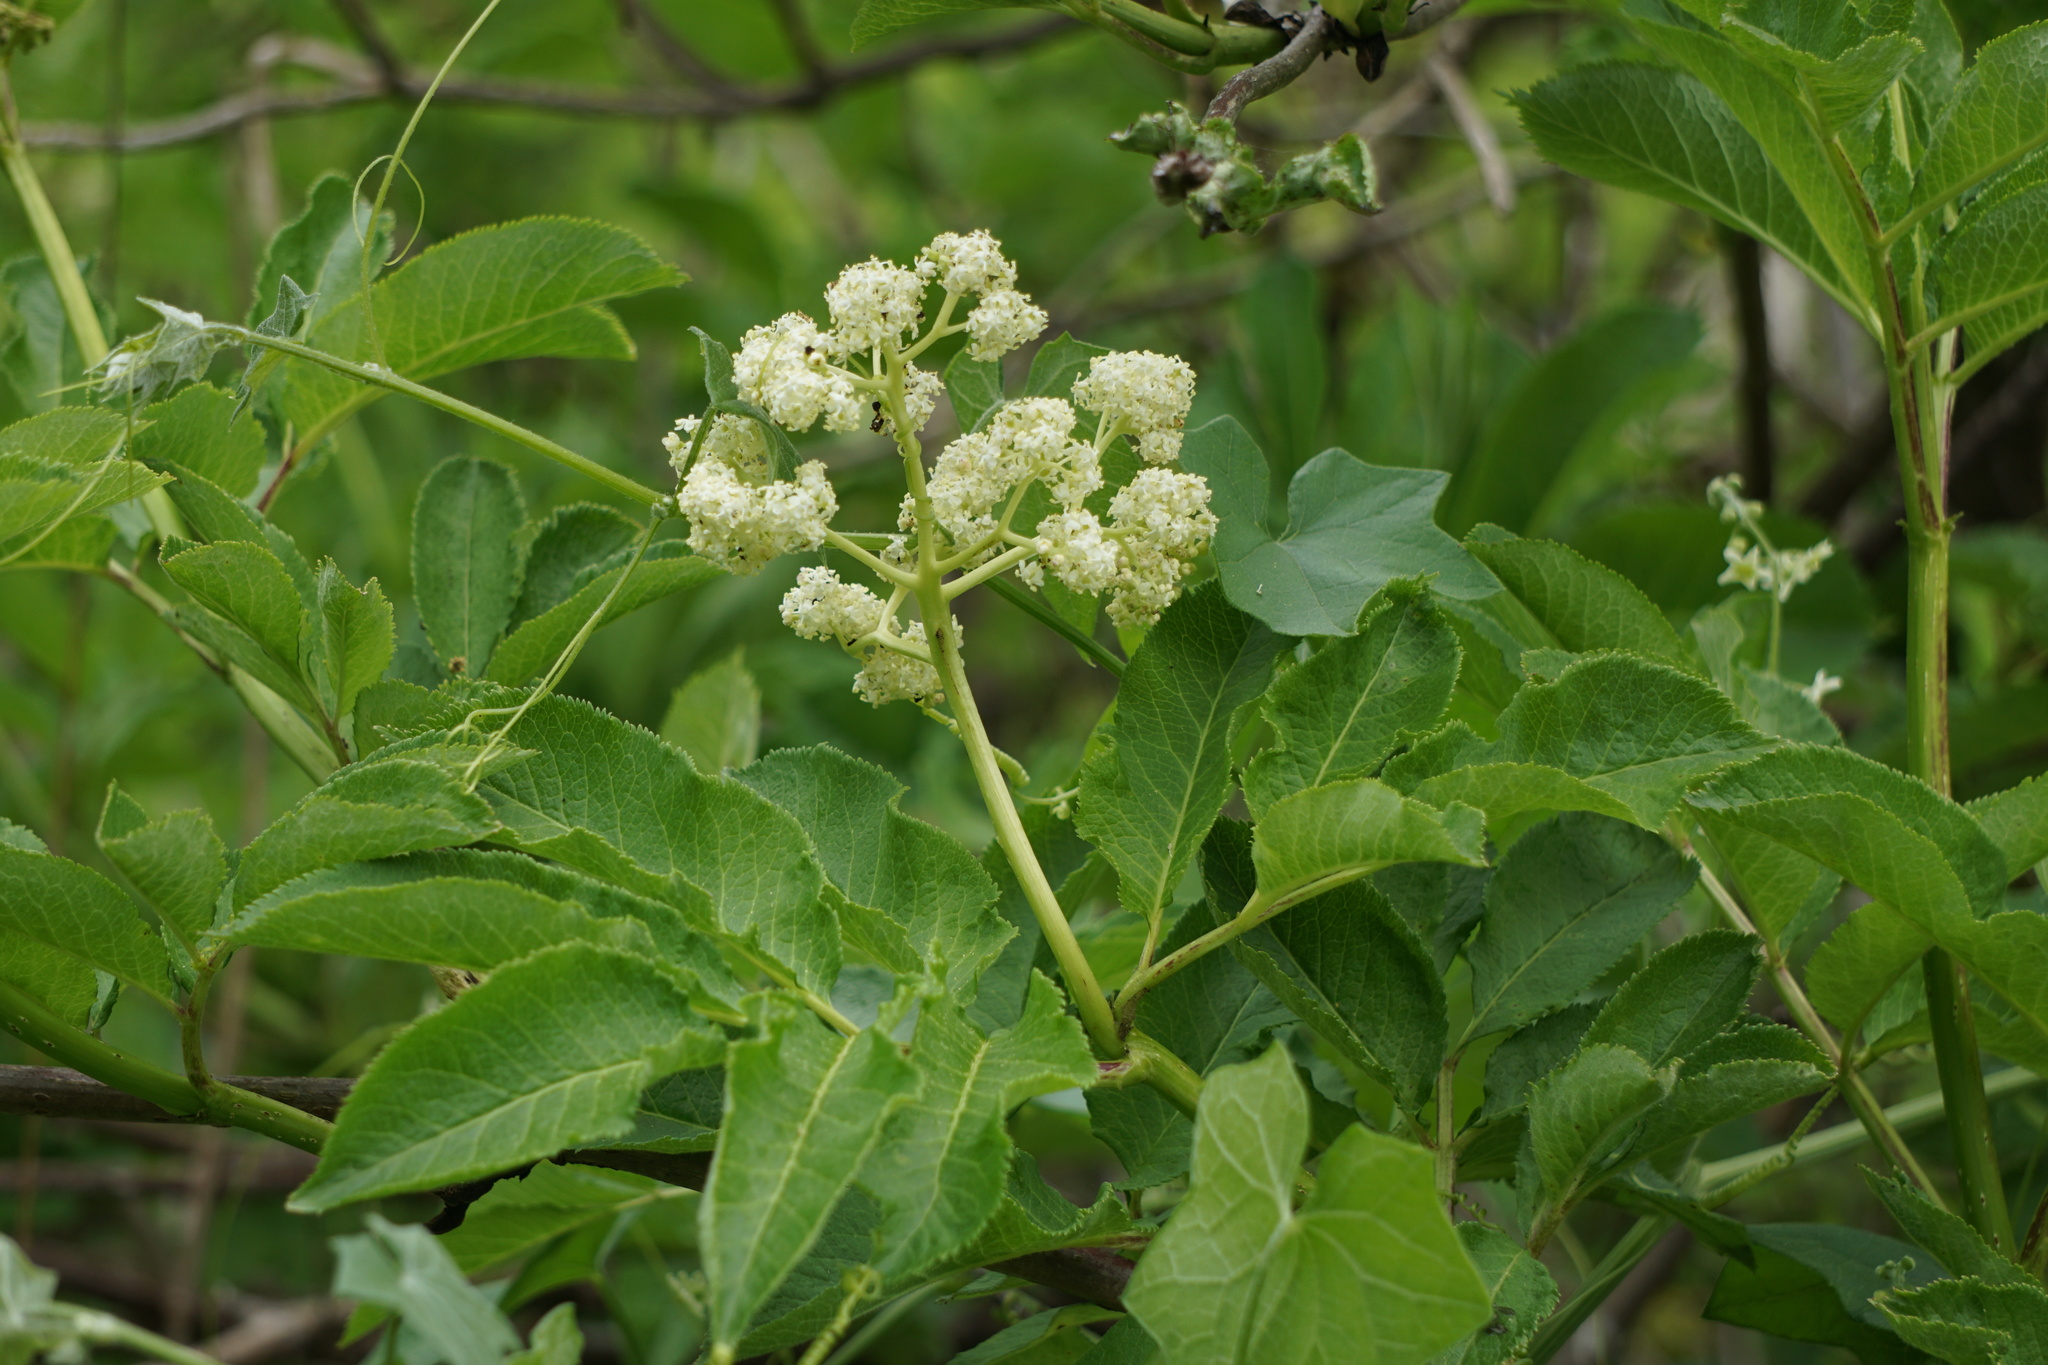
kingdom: Plantae
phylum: Tracheophyta
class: Magnoliopsida
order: Dipsacales
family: Viburnaceae
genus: Sambucus
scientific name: Sambucus racemosa
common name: Red-berried elder
